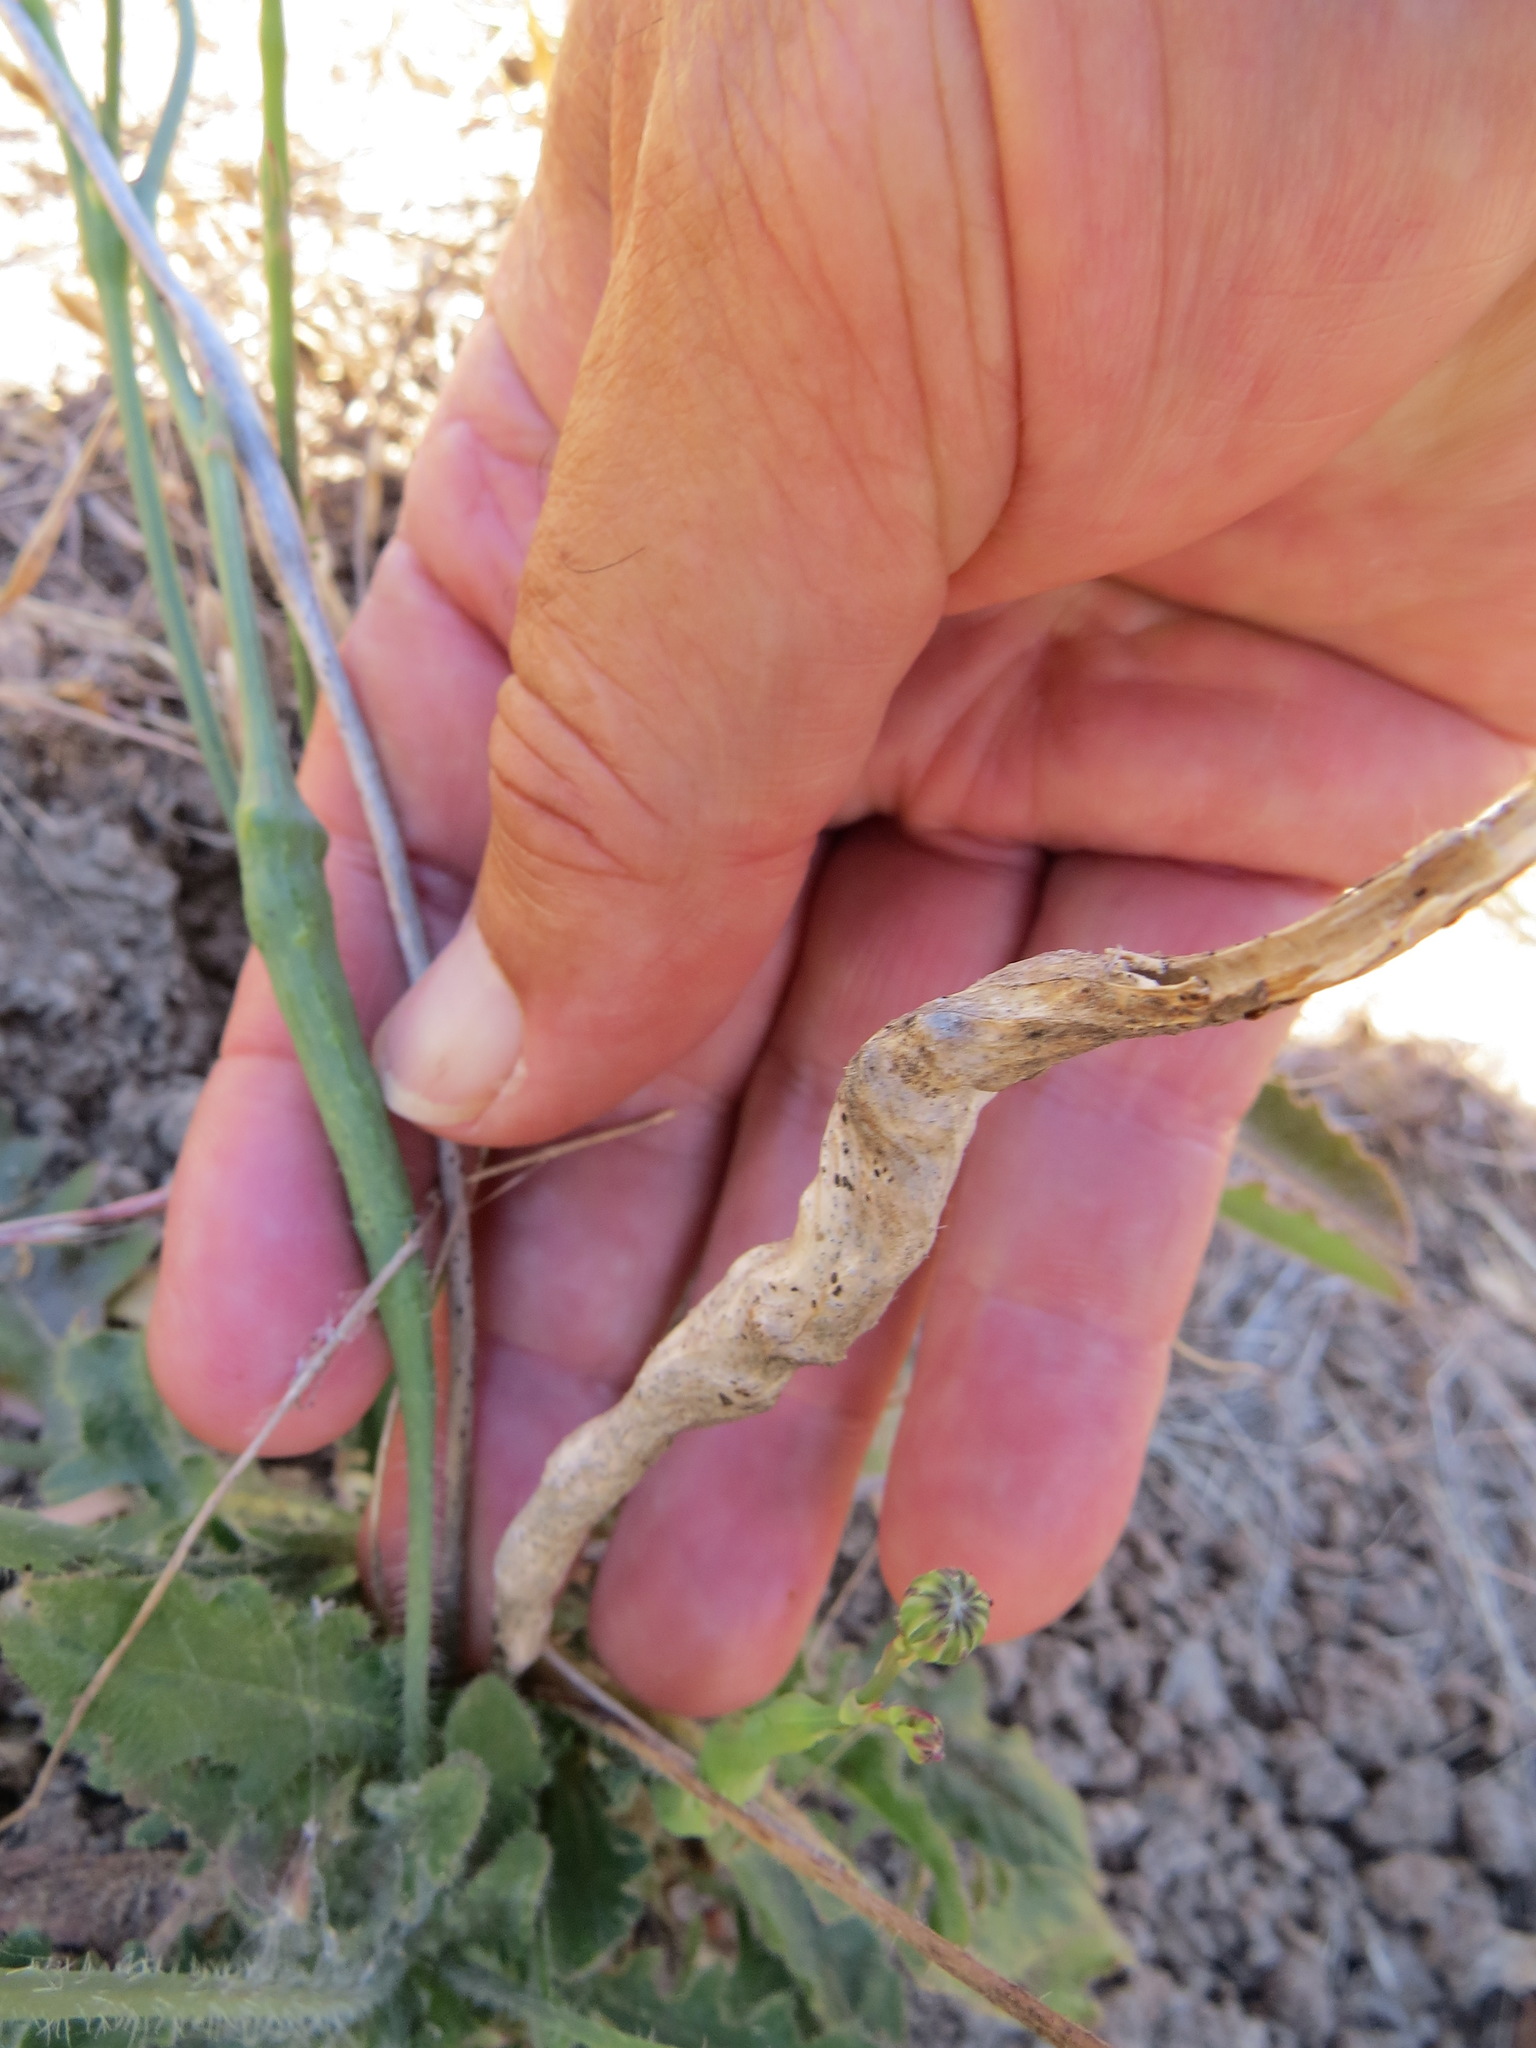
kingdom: Animalia
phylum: Arthropoda
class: Insecta
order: Hymenoptera
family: Cynipidae
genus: Phanacis
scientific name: Phanacis hypochoeridis
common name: Gall wasp
